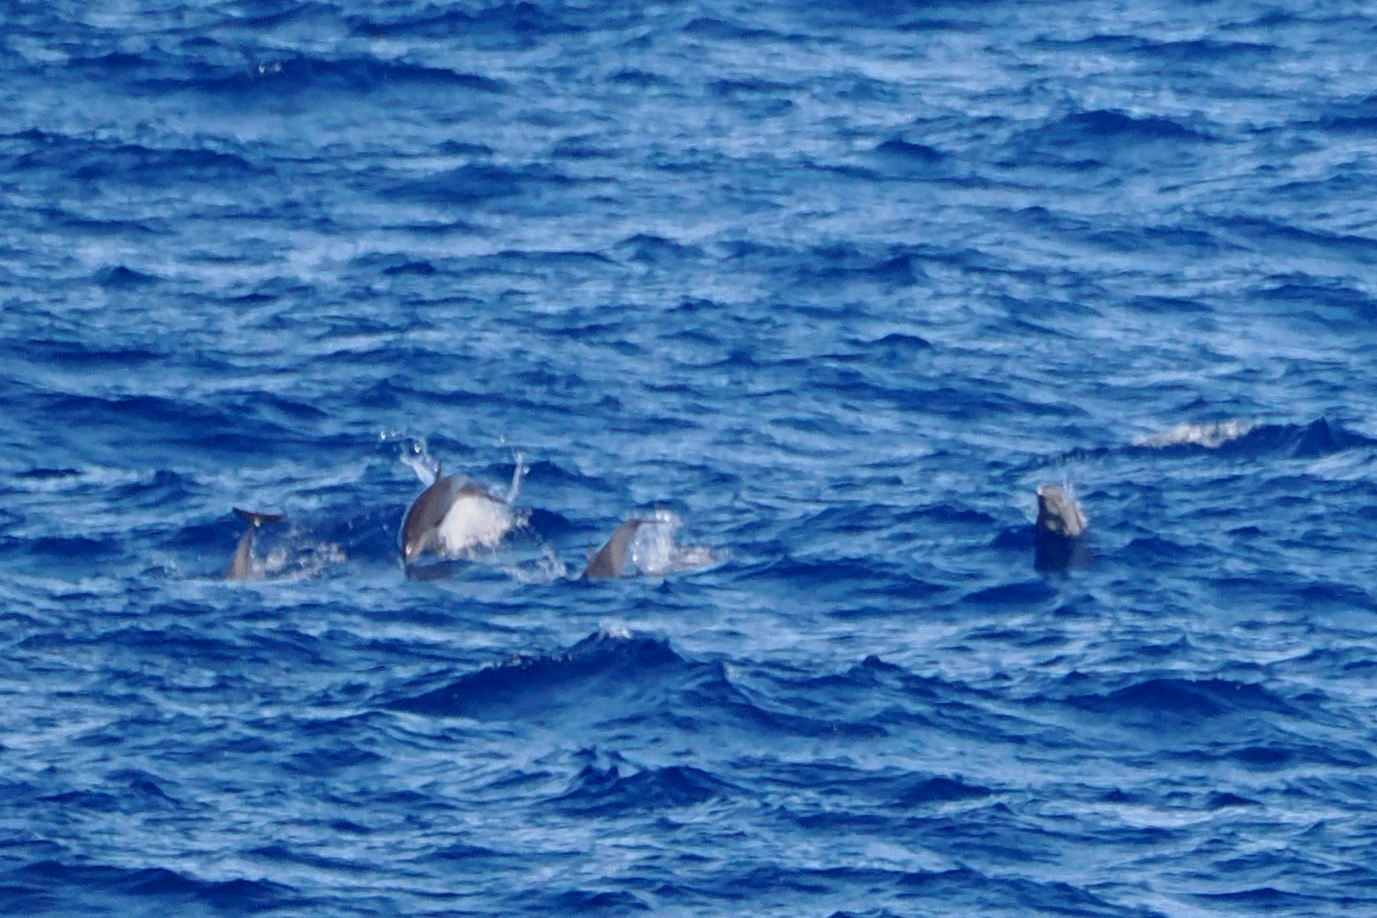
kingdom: Animalia
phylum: Chordata
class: Mammalia
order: Cetacea
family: Delphinidae
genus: Stenella
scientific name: Stenella attenuata
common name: Pantropical spotted dolphin
